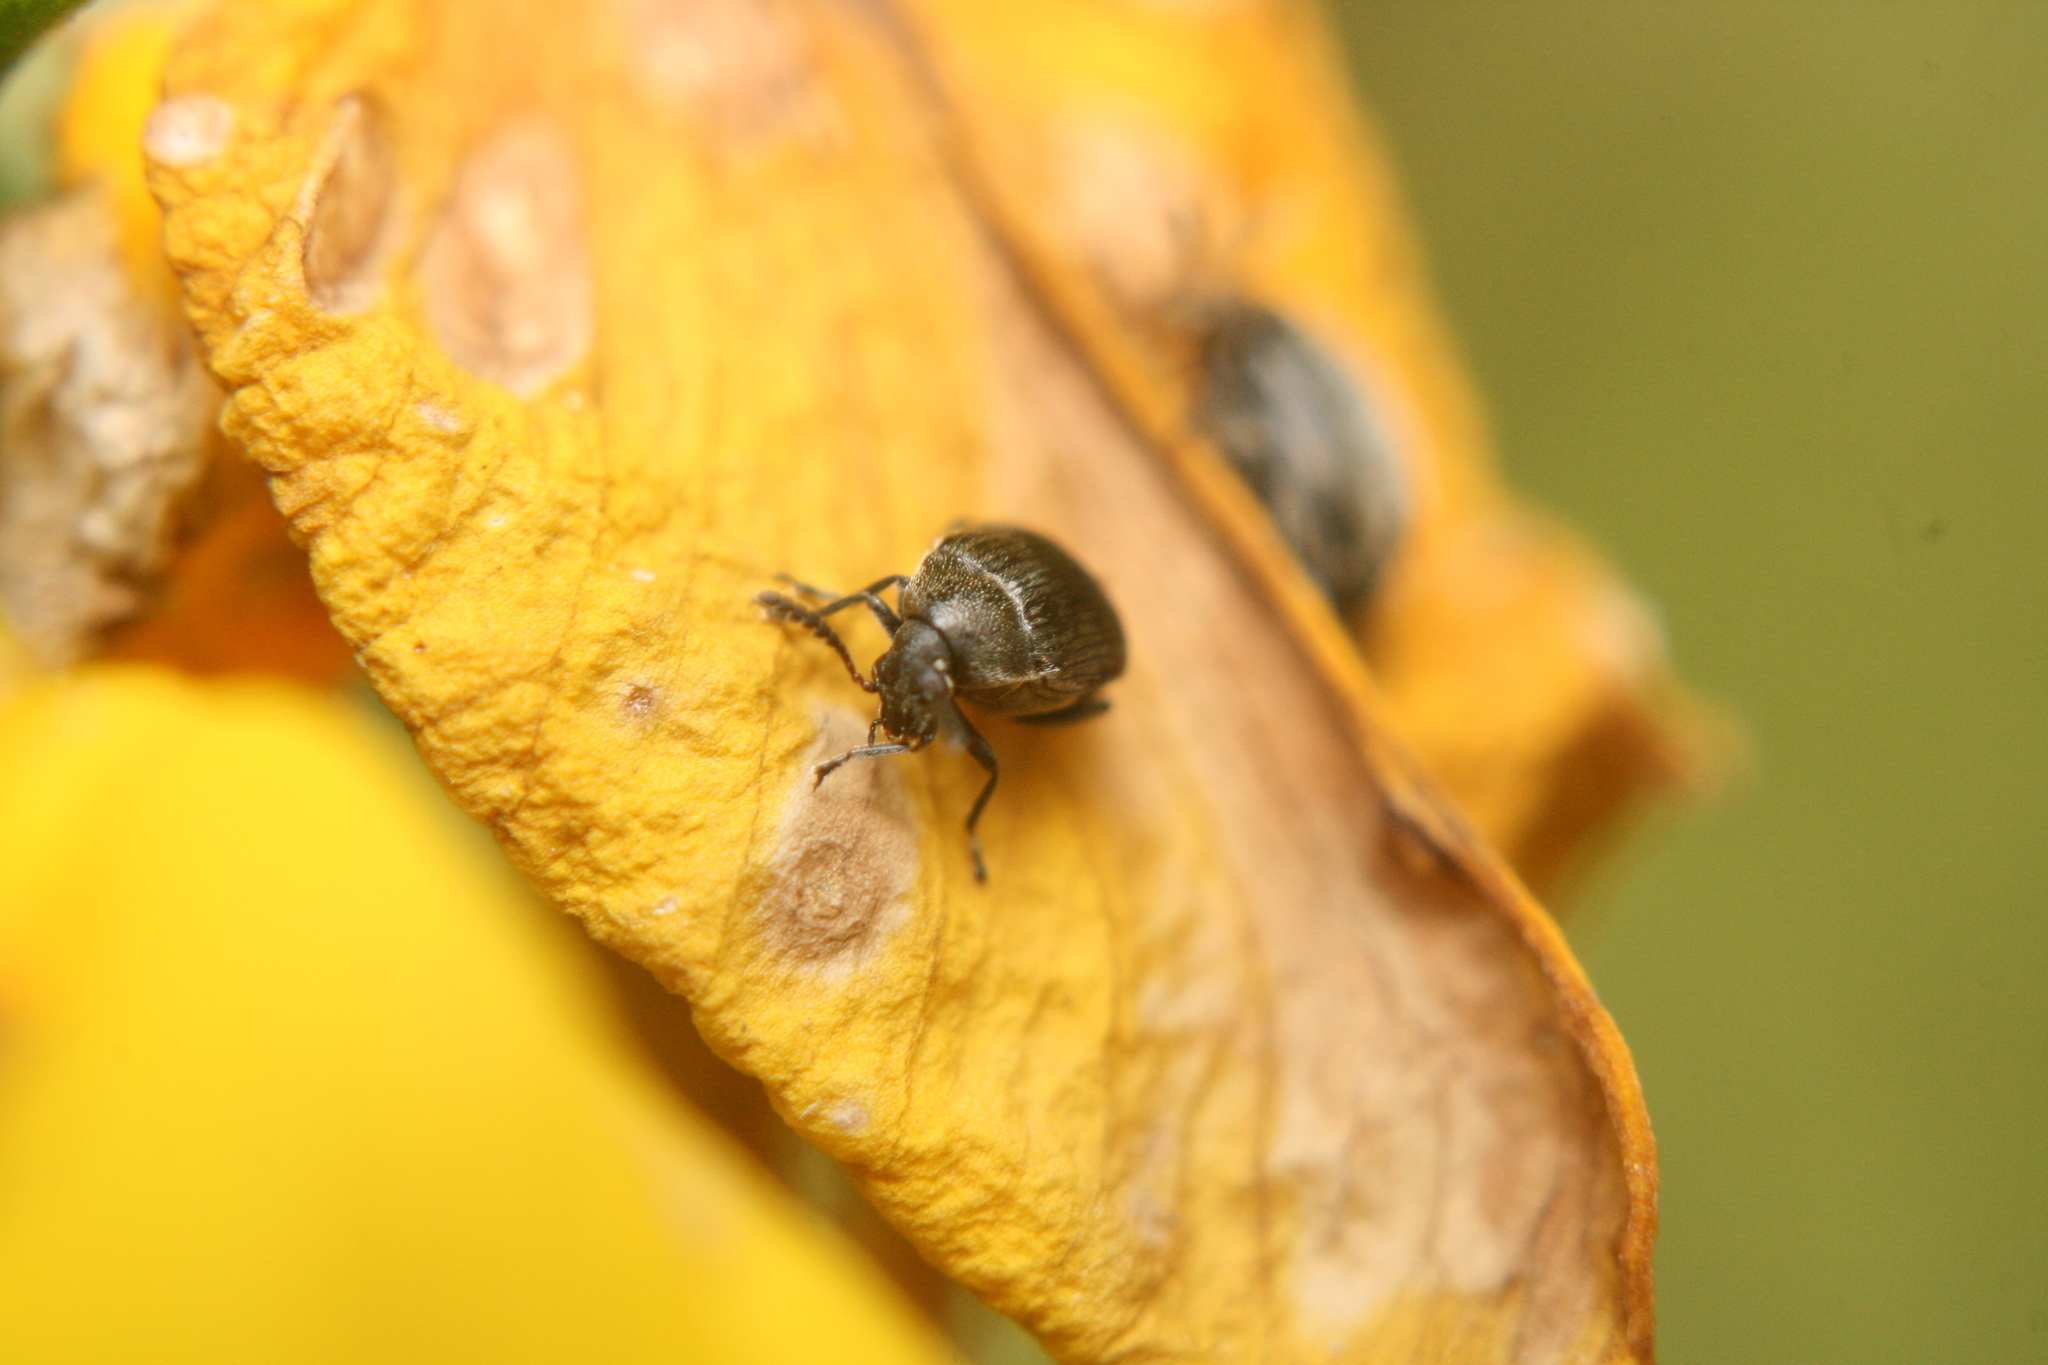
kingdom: Animalia
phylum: Arthropoda
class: Insecta
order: Coleoptera
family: Chrysomelidae
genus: Bruchidius
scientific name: Bruchidius villosus
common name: Scotch broom bruchid
